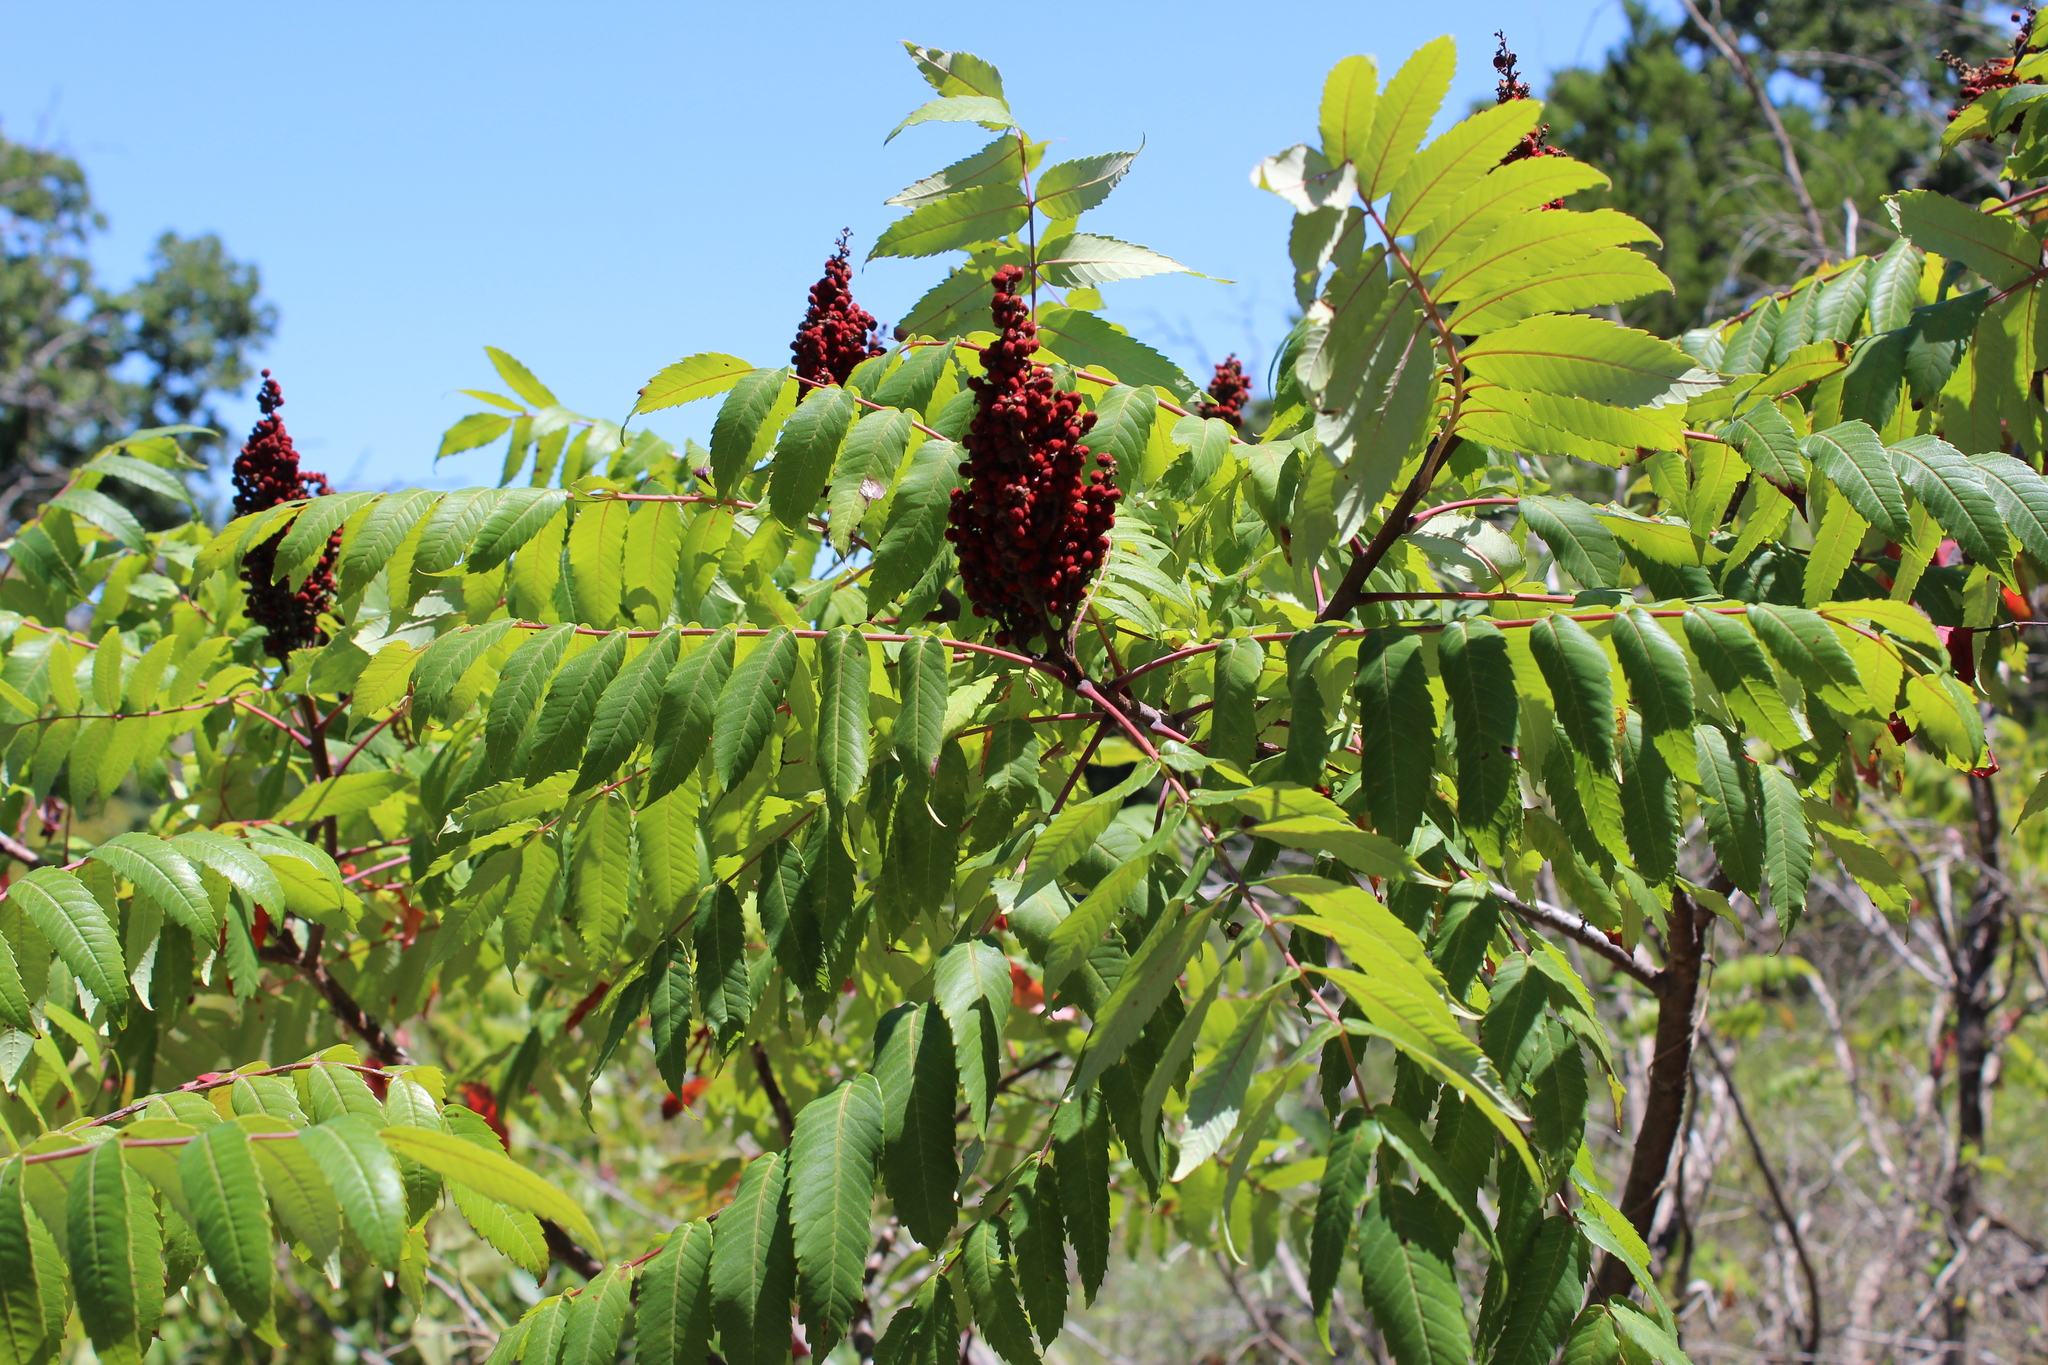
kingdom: Plantae
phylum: Tracheophyta
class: Magnoliopsida
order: Sapindales
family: Anacardiaceae
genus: Rhus
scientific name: Rhus glabra
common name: Scarlet sumac
